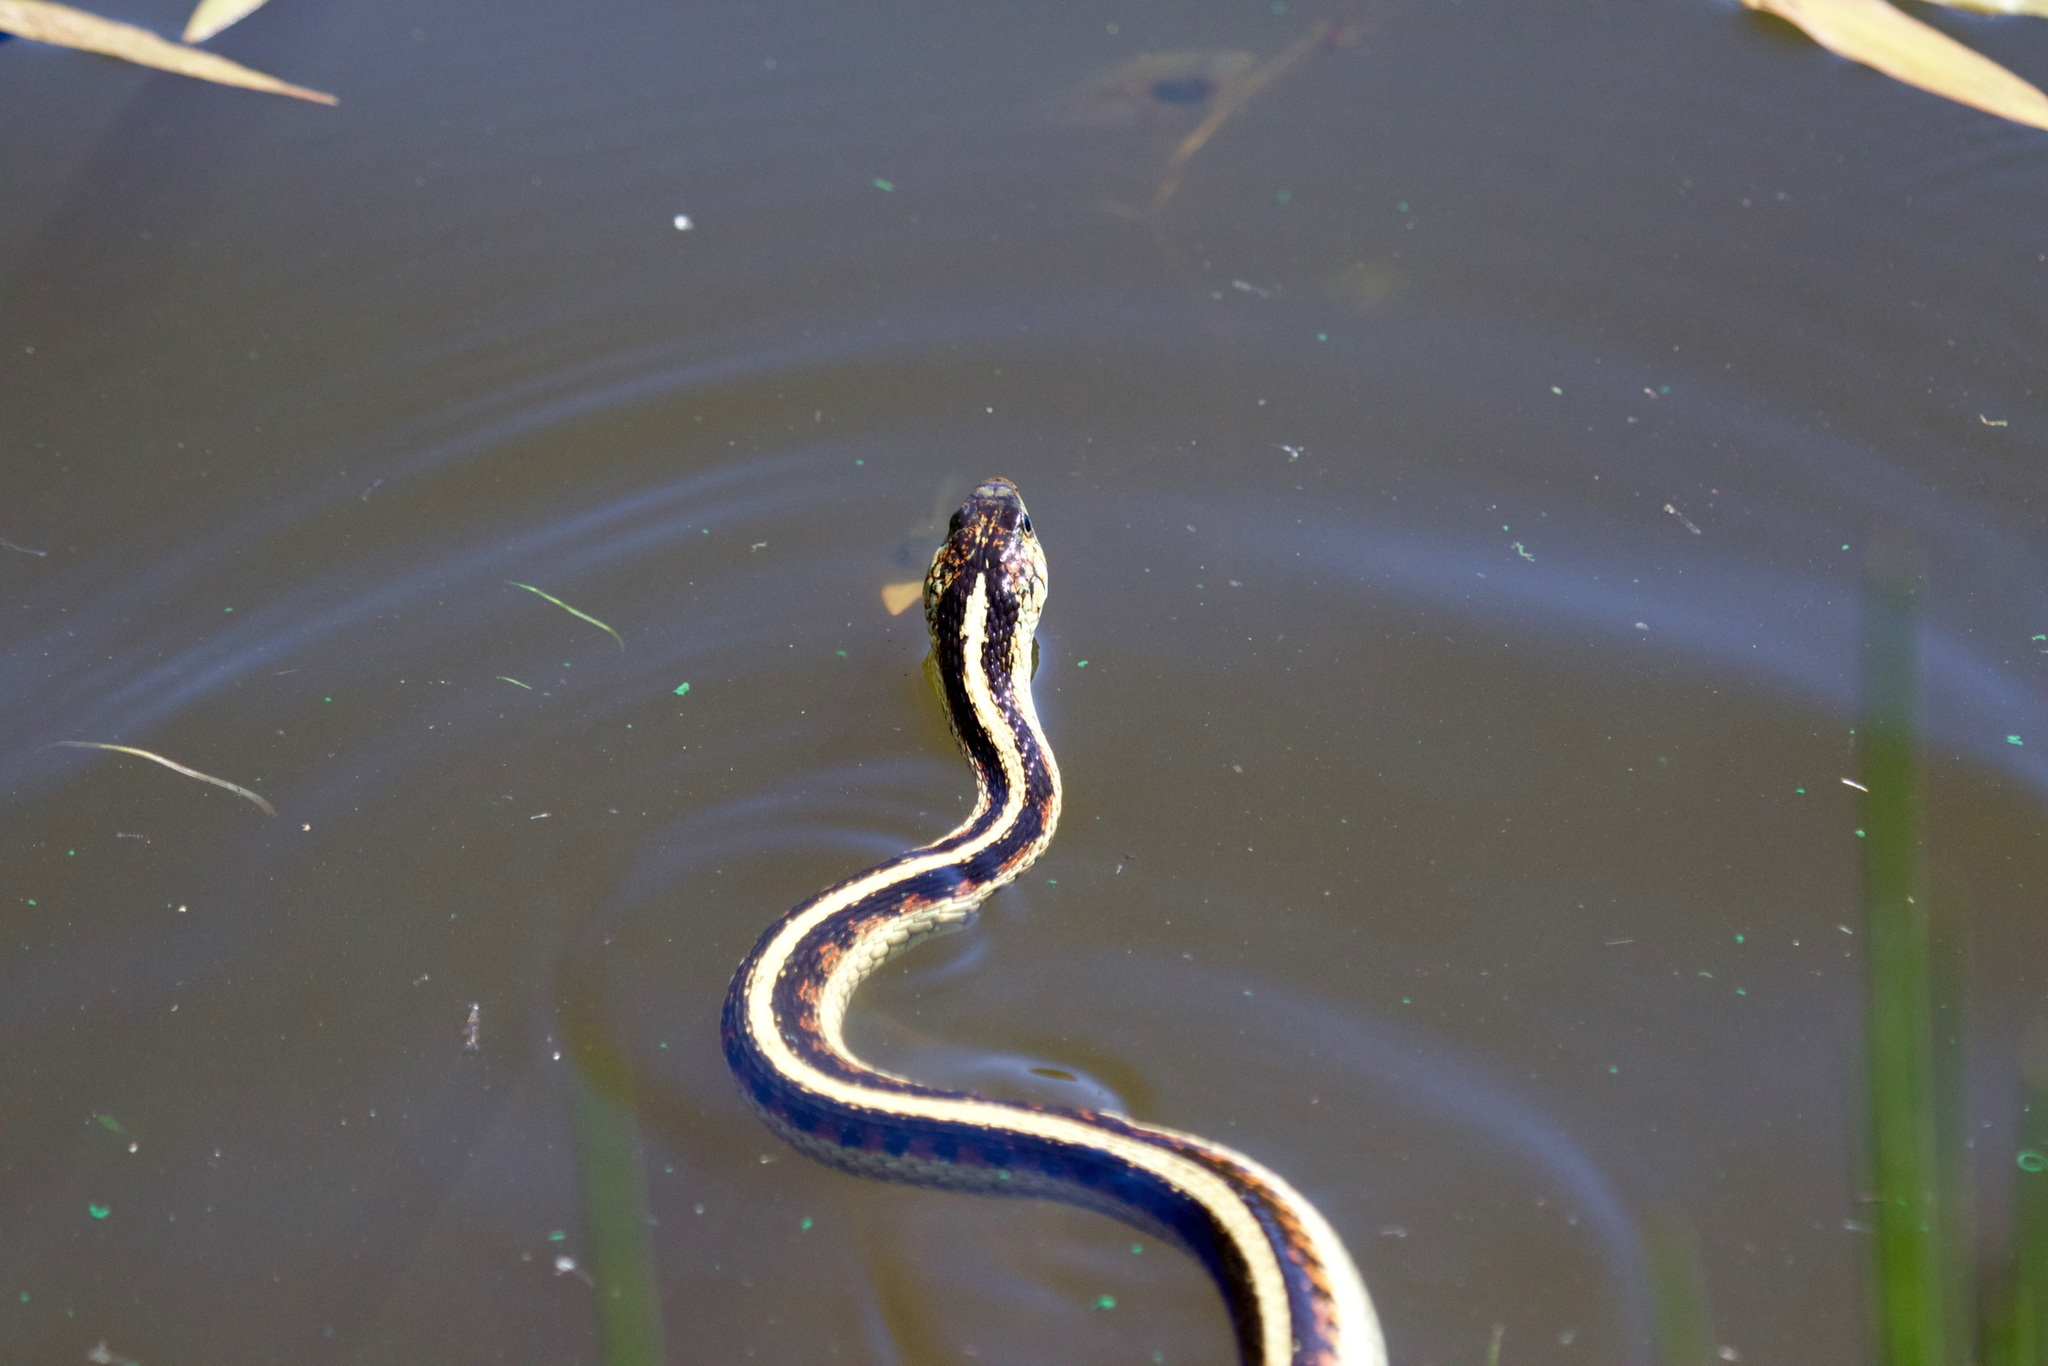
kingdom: Animalia
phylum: Chordata
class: Squamata
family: Colubridae
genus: Thamnophis
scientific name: Thamnophis sirtalis
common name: Common garter snake
